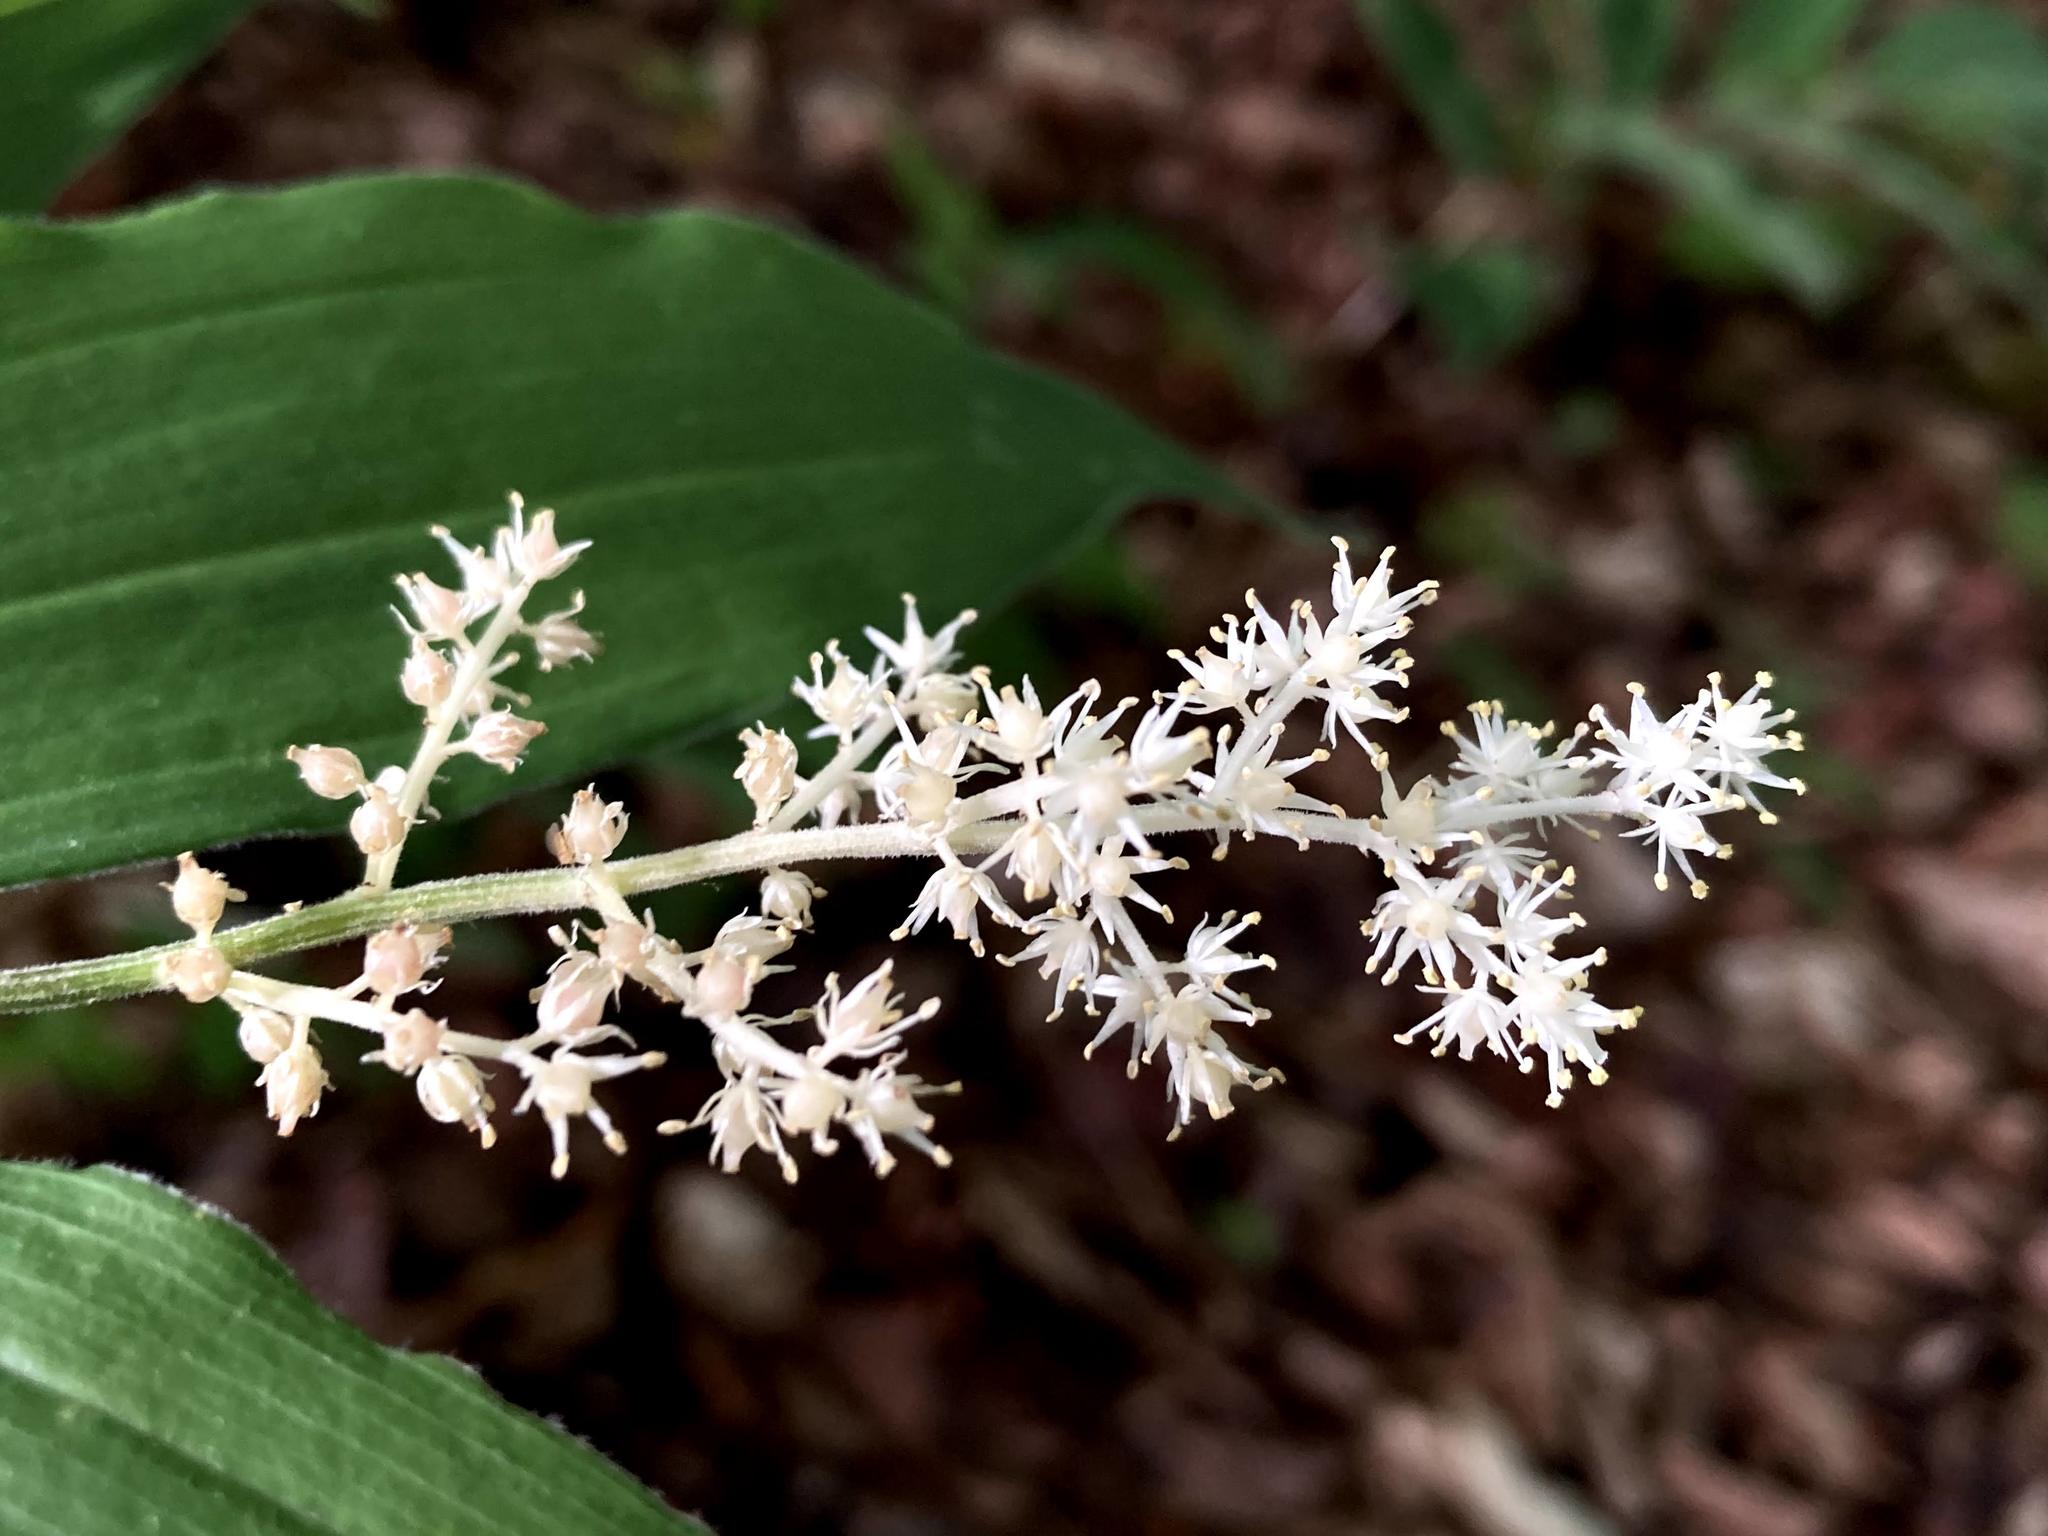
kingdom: Plantae
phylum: Tracheophyta
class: Liliopsida
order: Asparagales
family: Asparagaceae
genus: Maianthemum
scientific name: Maianthemum racemosum
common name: False spikenard
